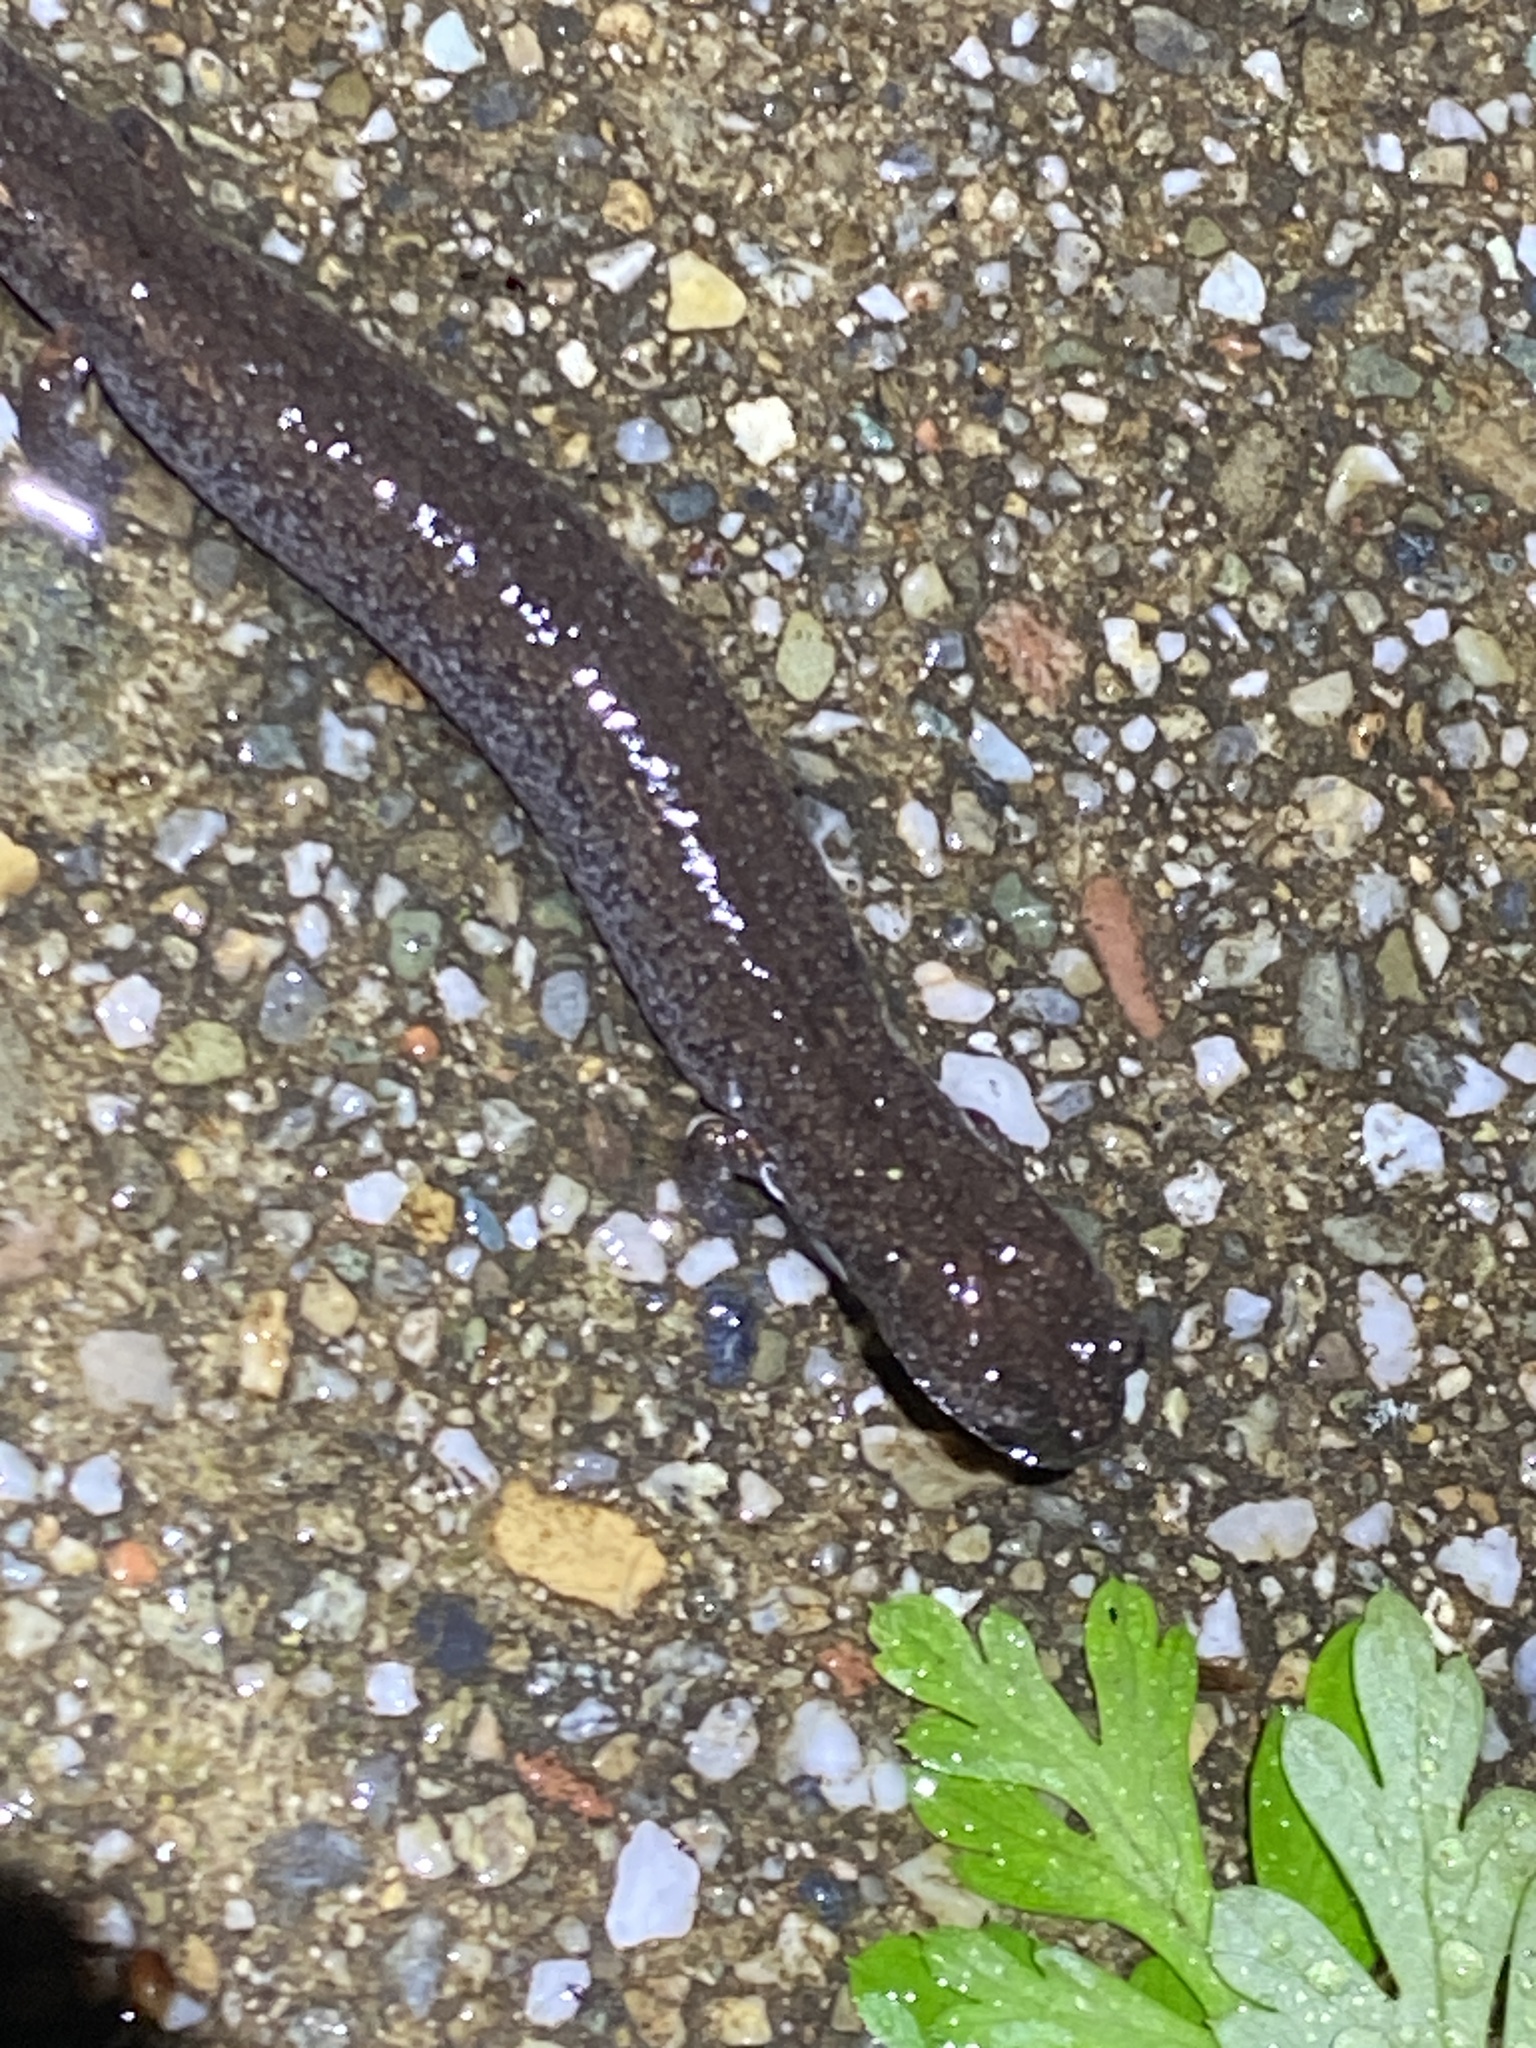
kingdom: Animalia
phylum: Chordata
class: Amphibia
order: Caudata
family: Plethodontidae
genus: Batrachoseps
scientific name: Batrachoseps attenuatus
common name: California slender salamander
